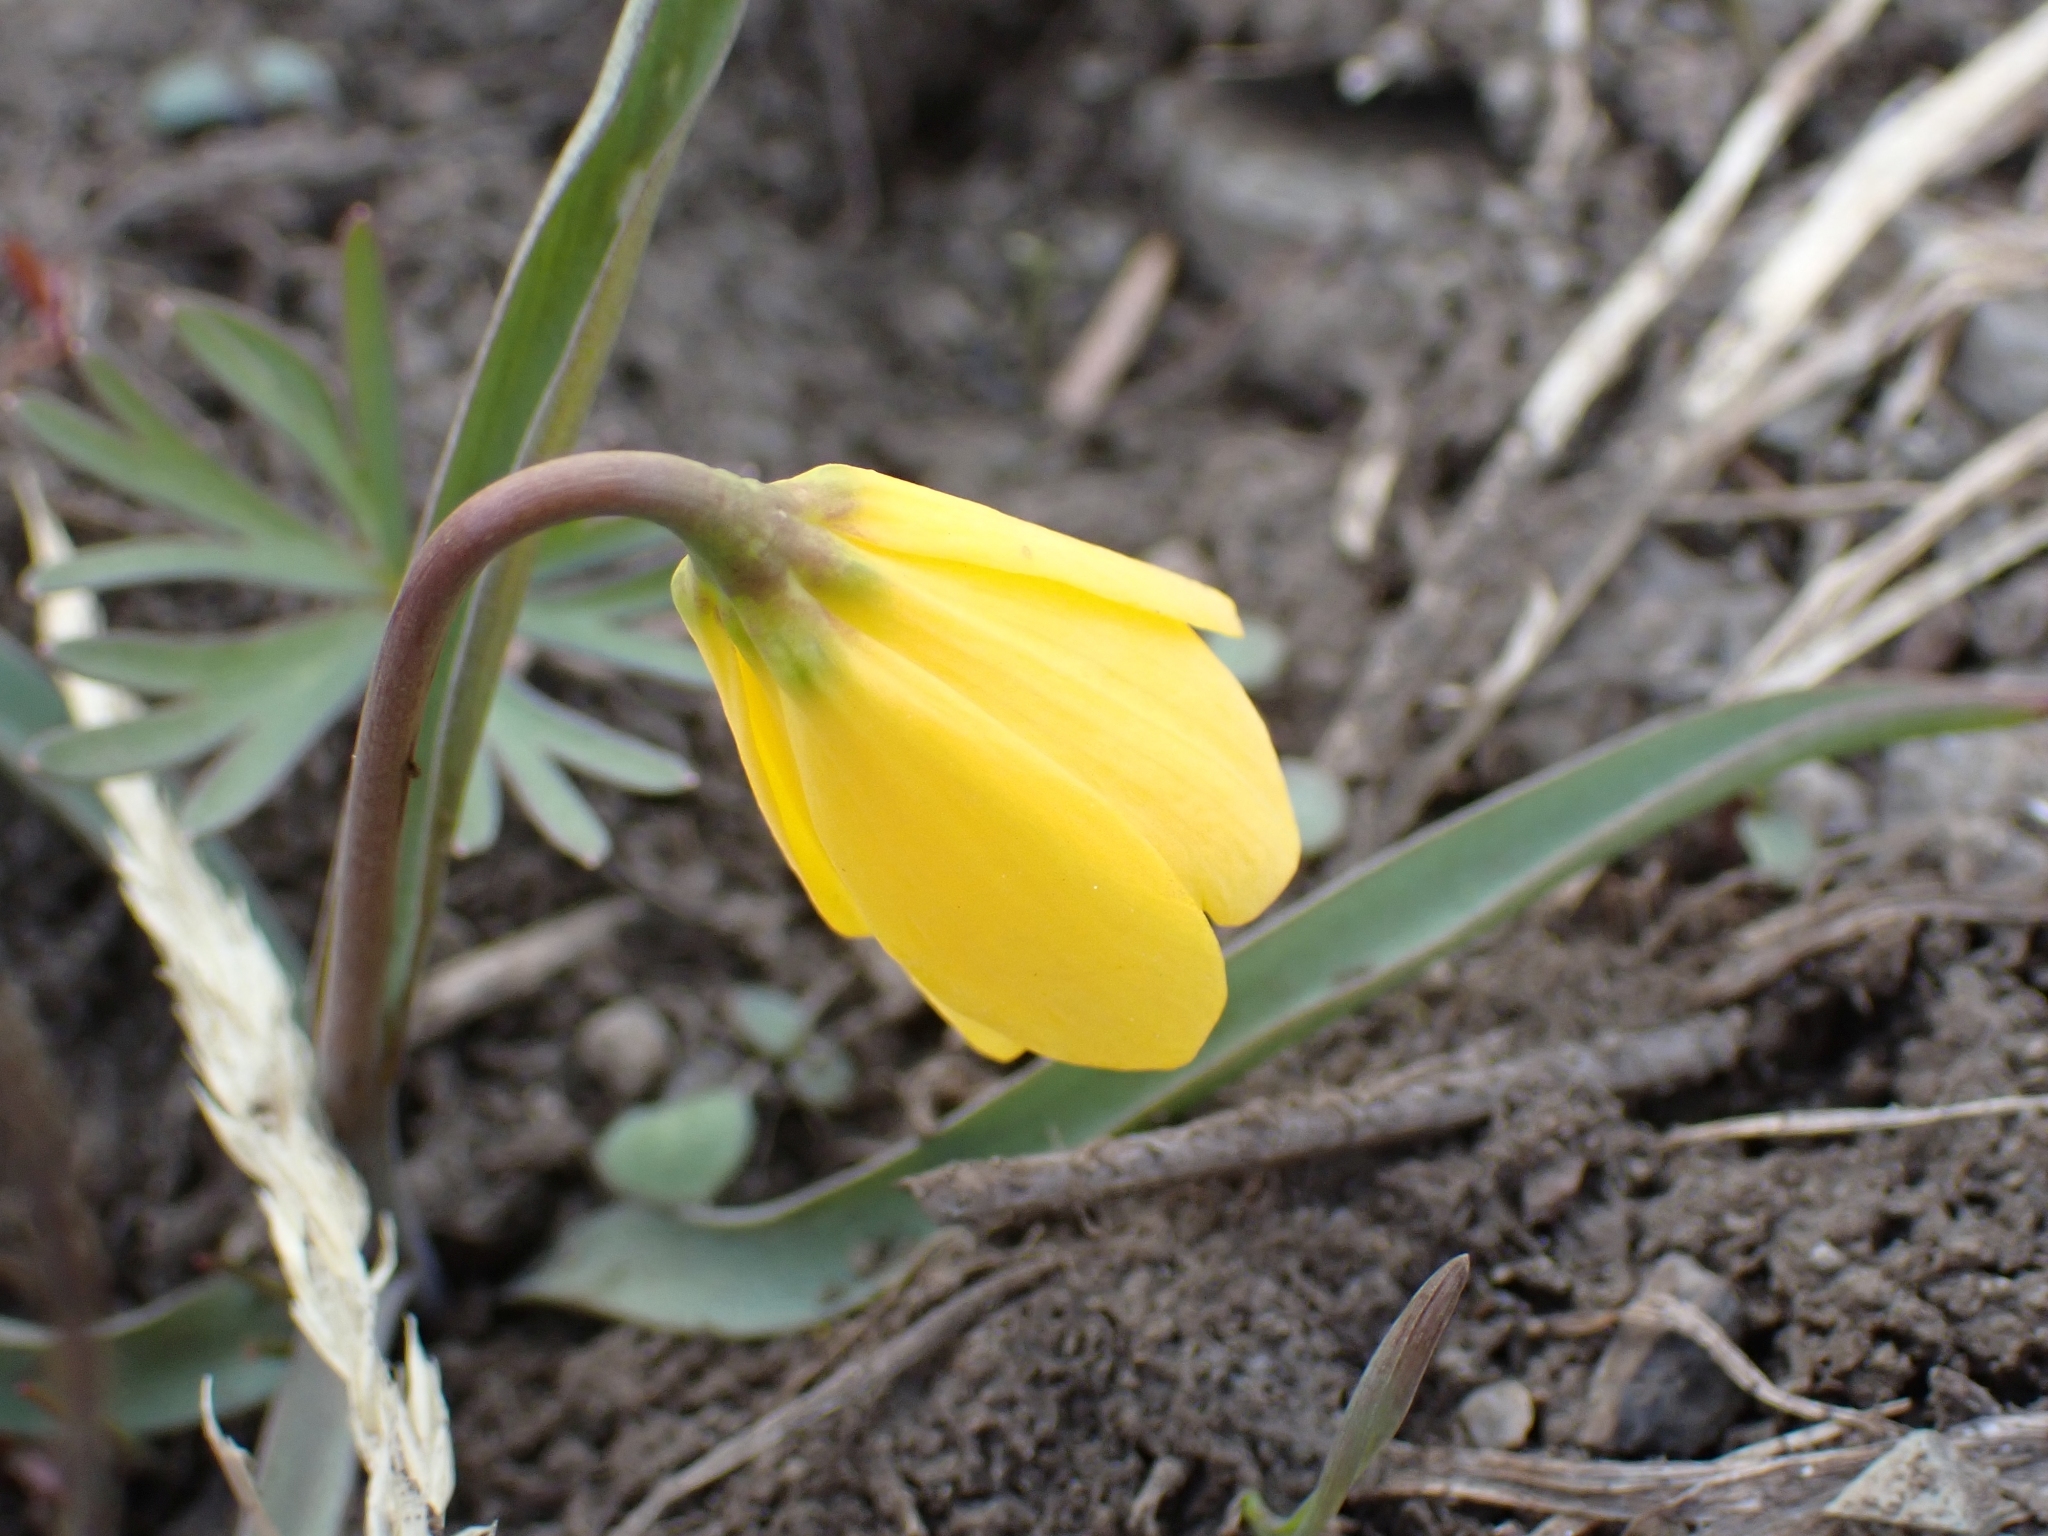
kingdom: Plantae
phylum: Tracheophyta
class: Liliopsida
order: Liliales
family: Liliaceae
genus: Fritillaria
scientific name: Fritillaria pudica
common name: Yellow fritillary
